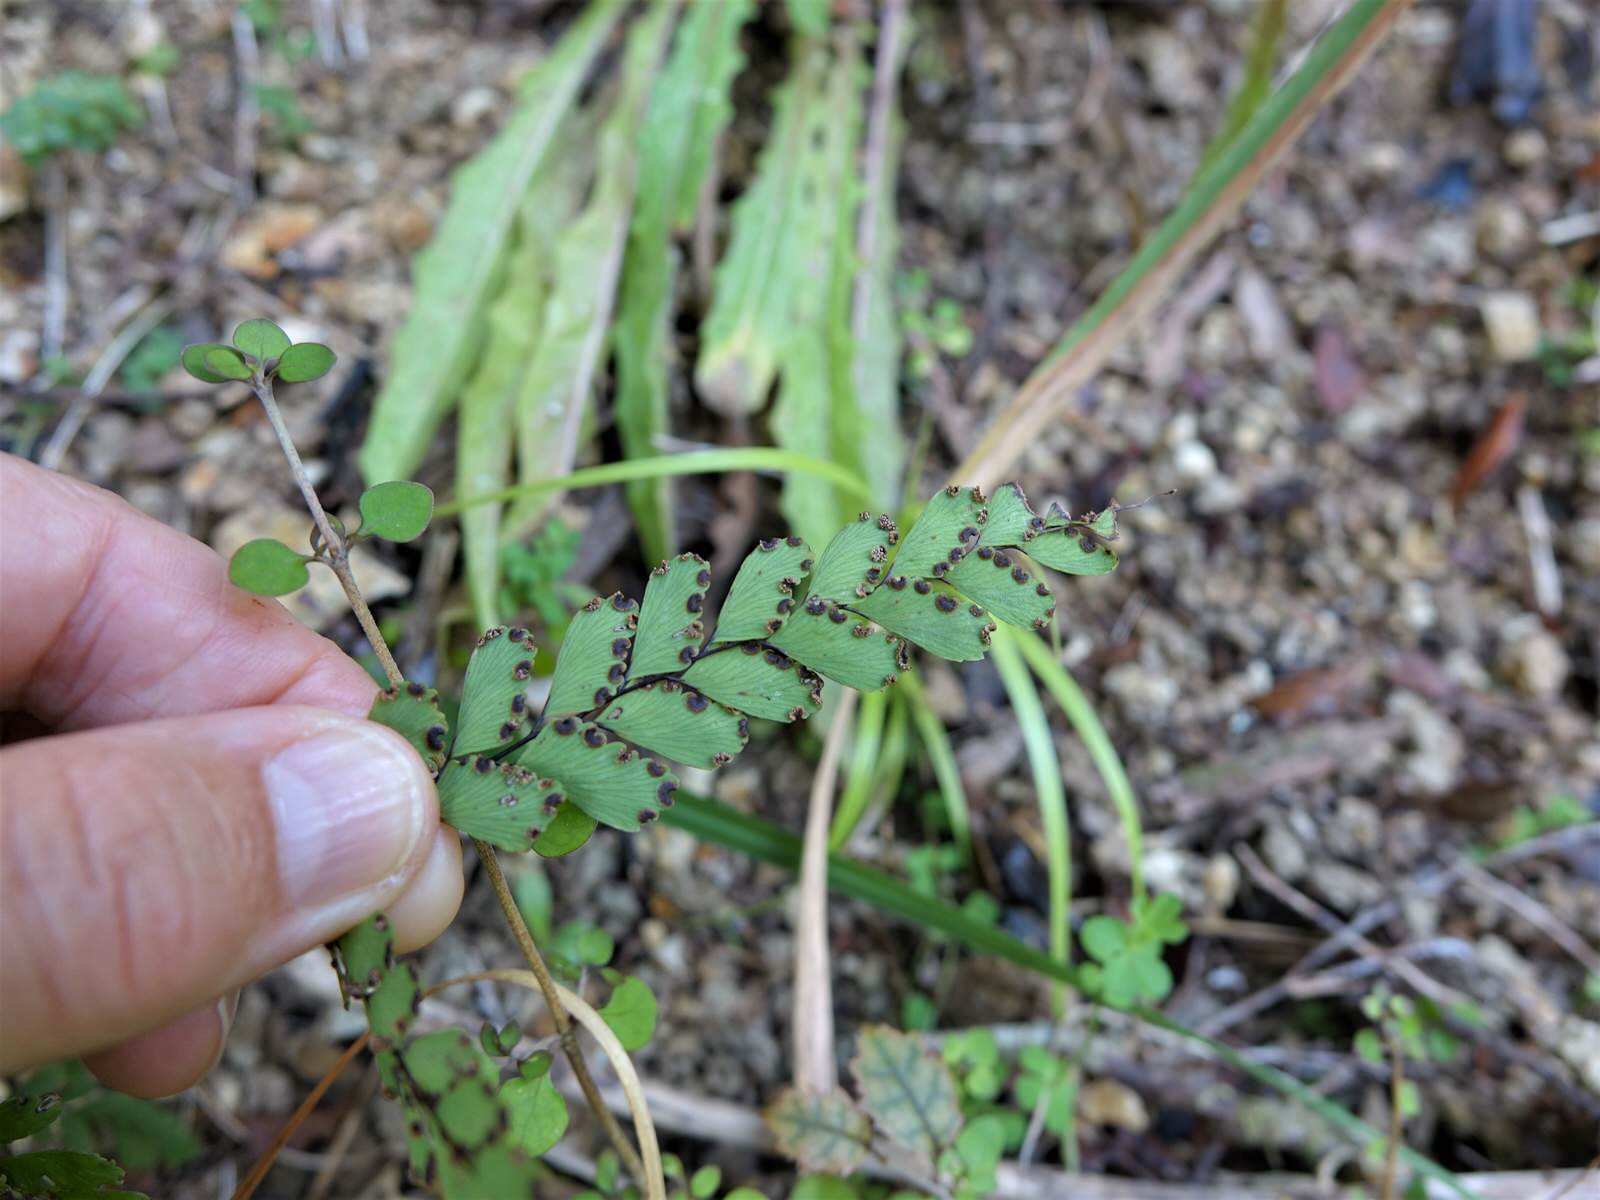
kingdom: Plantae
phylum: Tracheophyta
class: Polypodiopsida
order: Polypodiales
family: Pteridaceae
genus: Adiantum
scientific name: Adiantum cunninghamii
